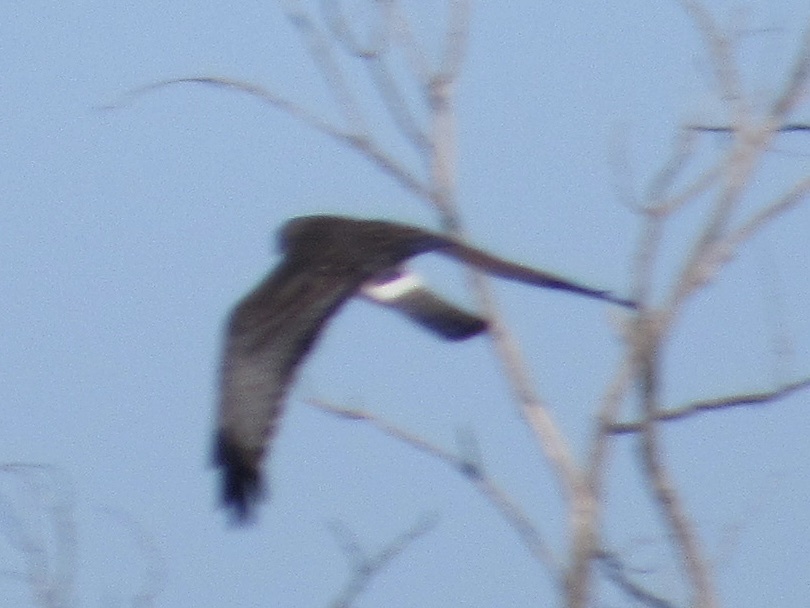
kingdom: Animalia
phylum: Chordata
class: Aves
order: Accipitriformes
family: Accipitridae
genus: Circus
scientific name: Circus cyaneus
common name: Hen harrier
